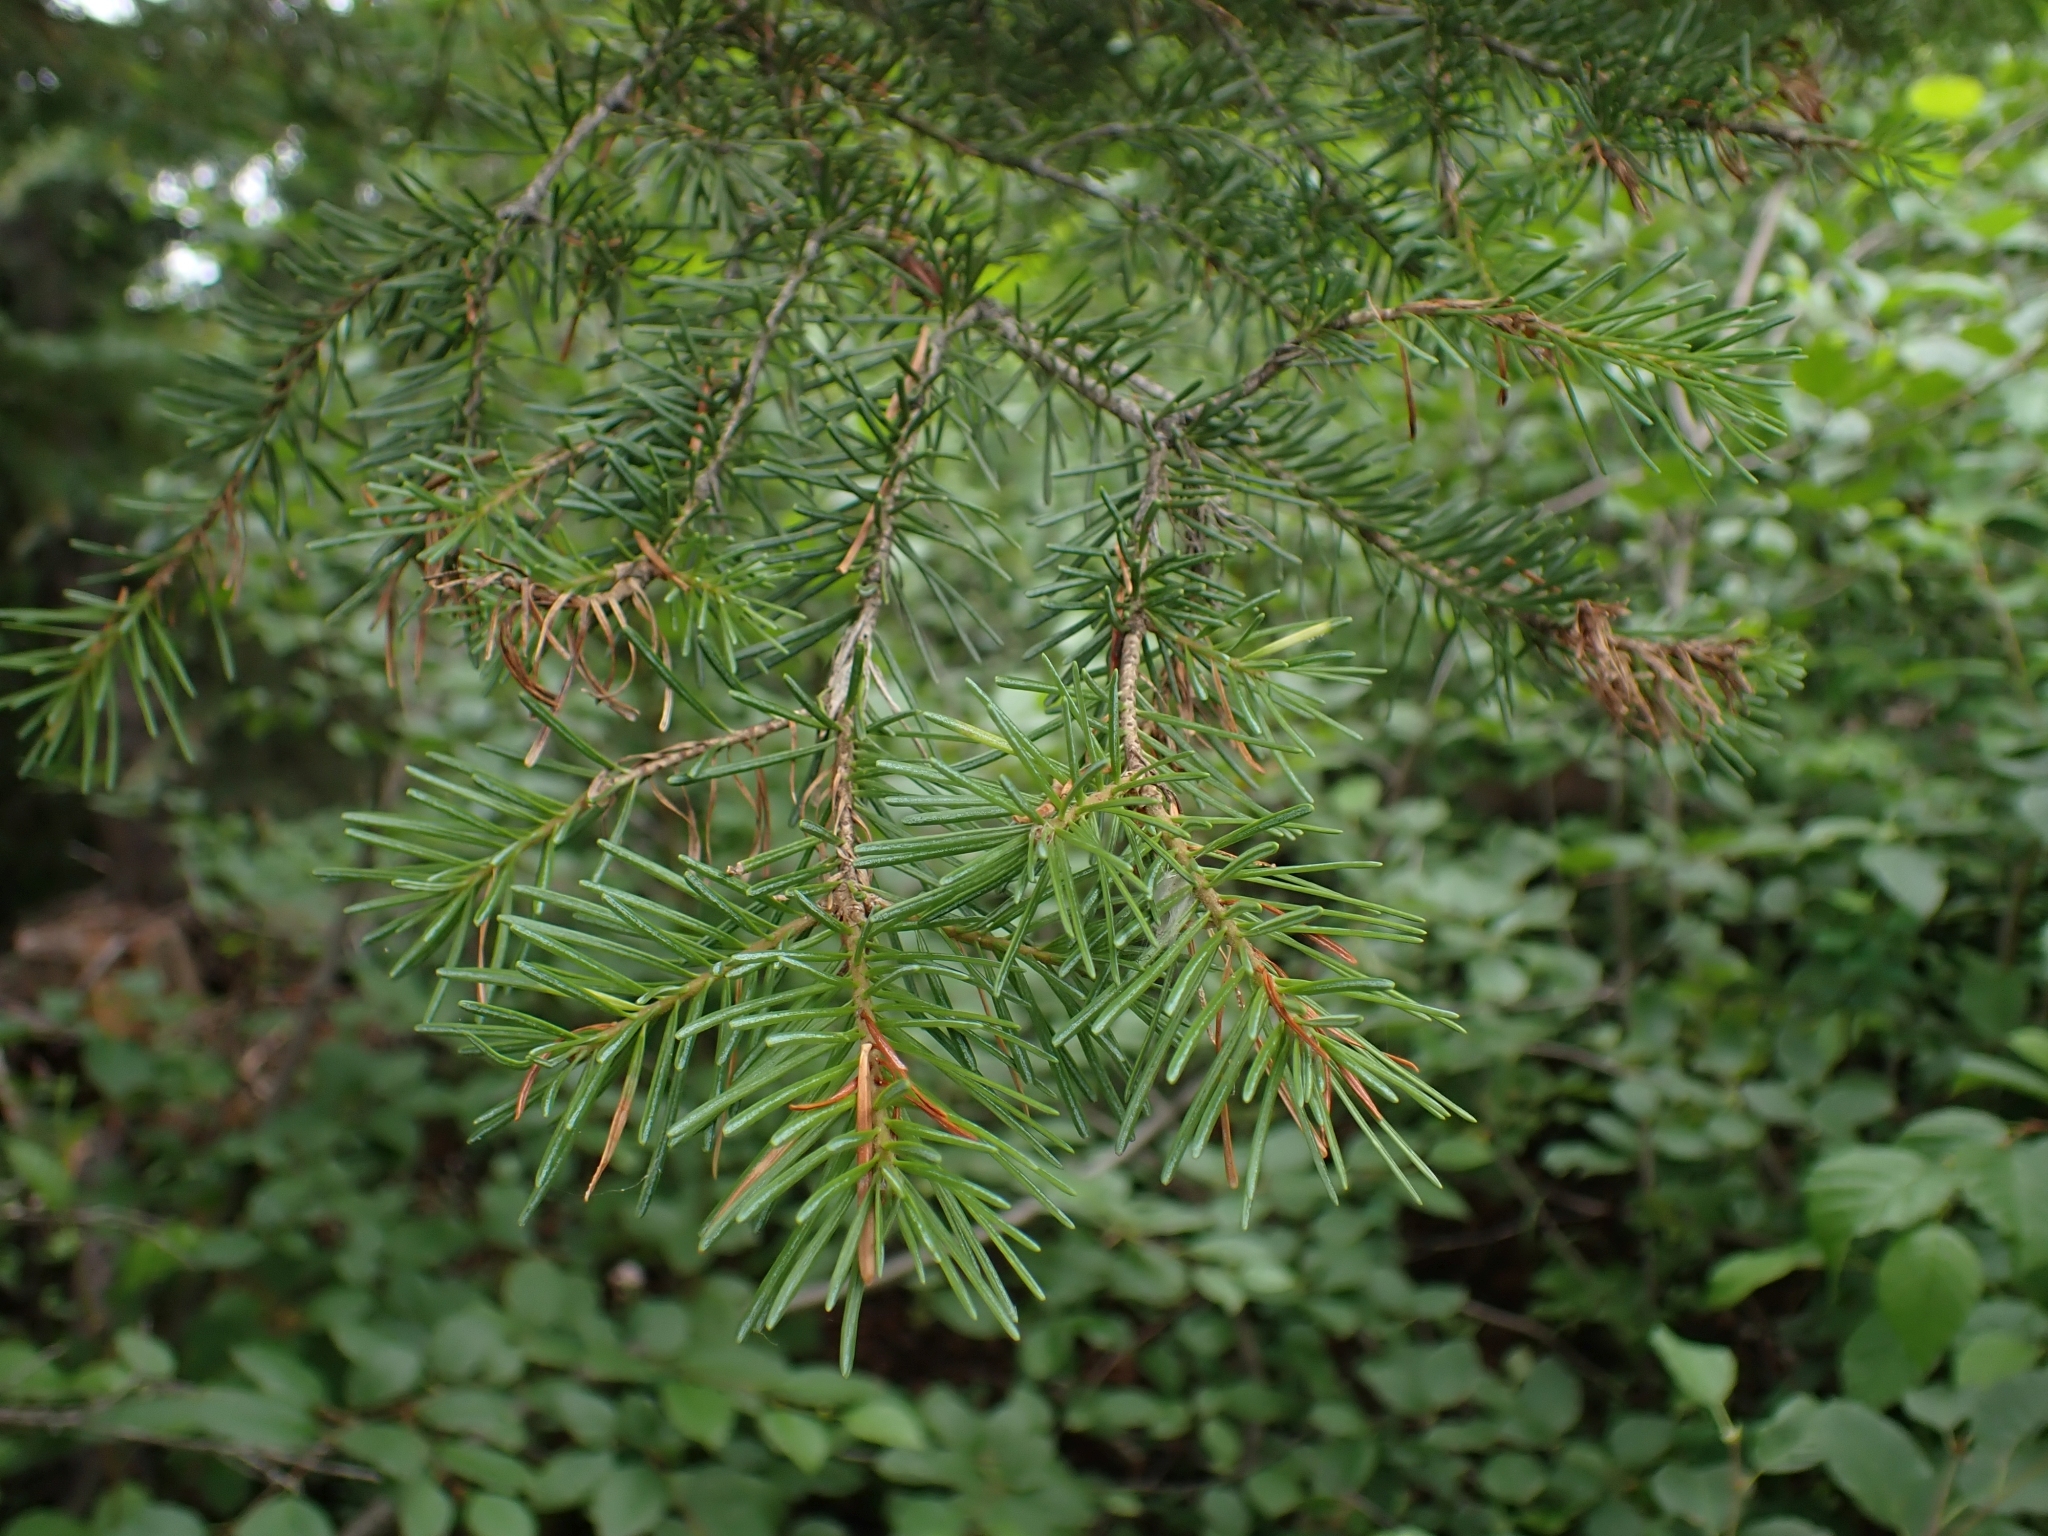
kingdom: Plantae
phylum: Tracheophyta
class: Pinopsida
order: Pinales
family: Pinaceae
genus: Abies
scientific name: Abies lasiocarpa
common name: Subalpine fir
